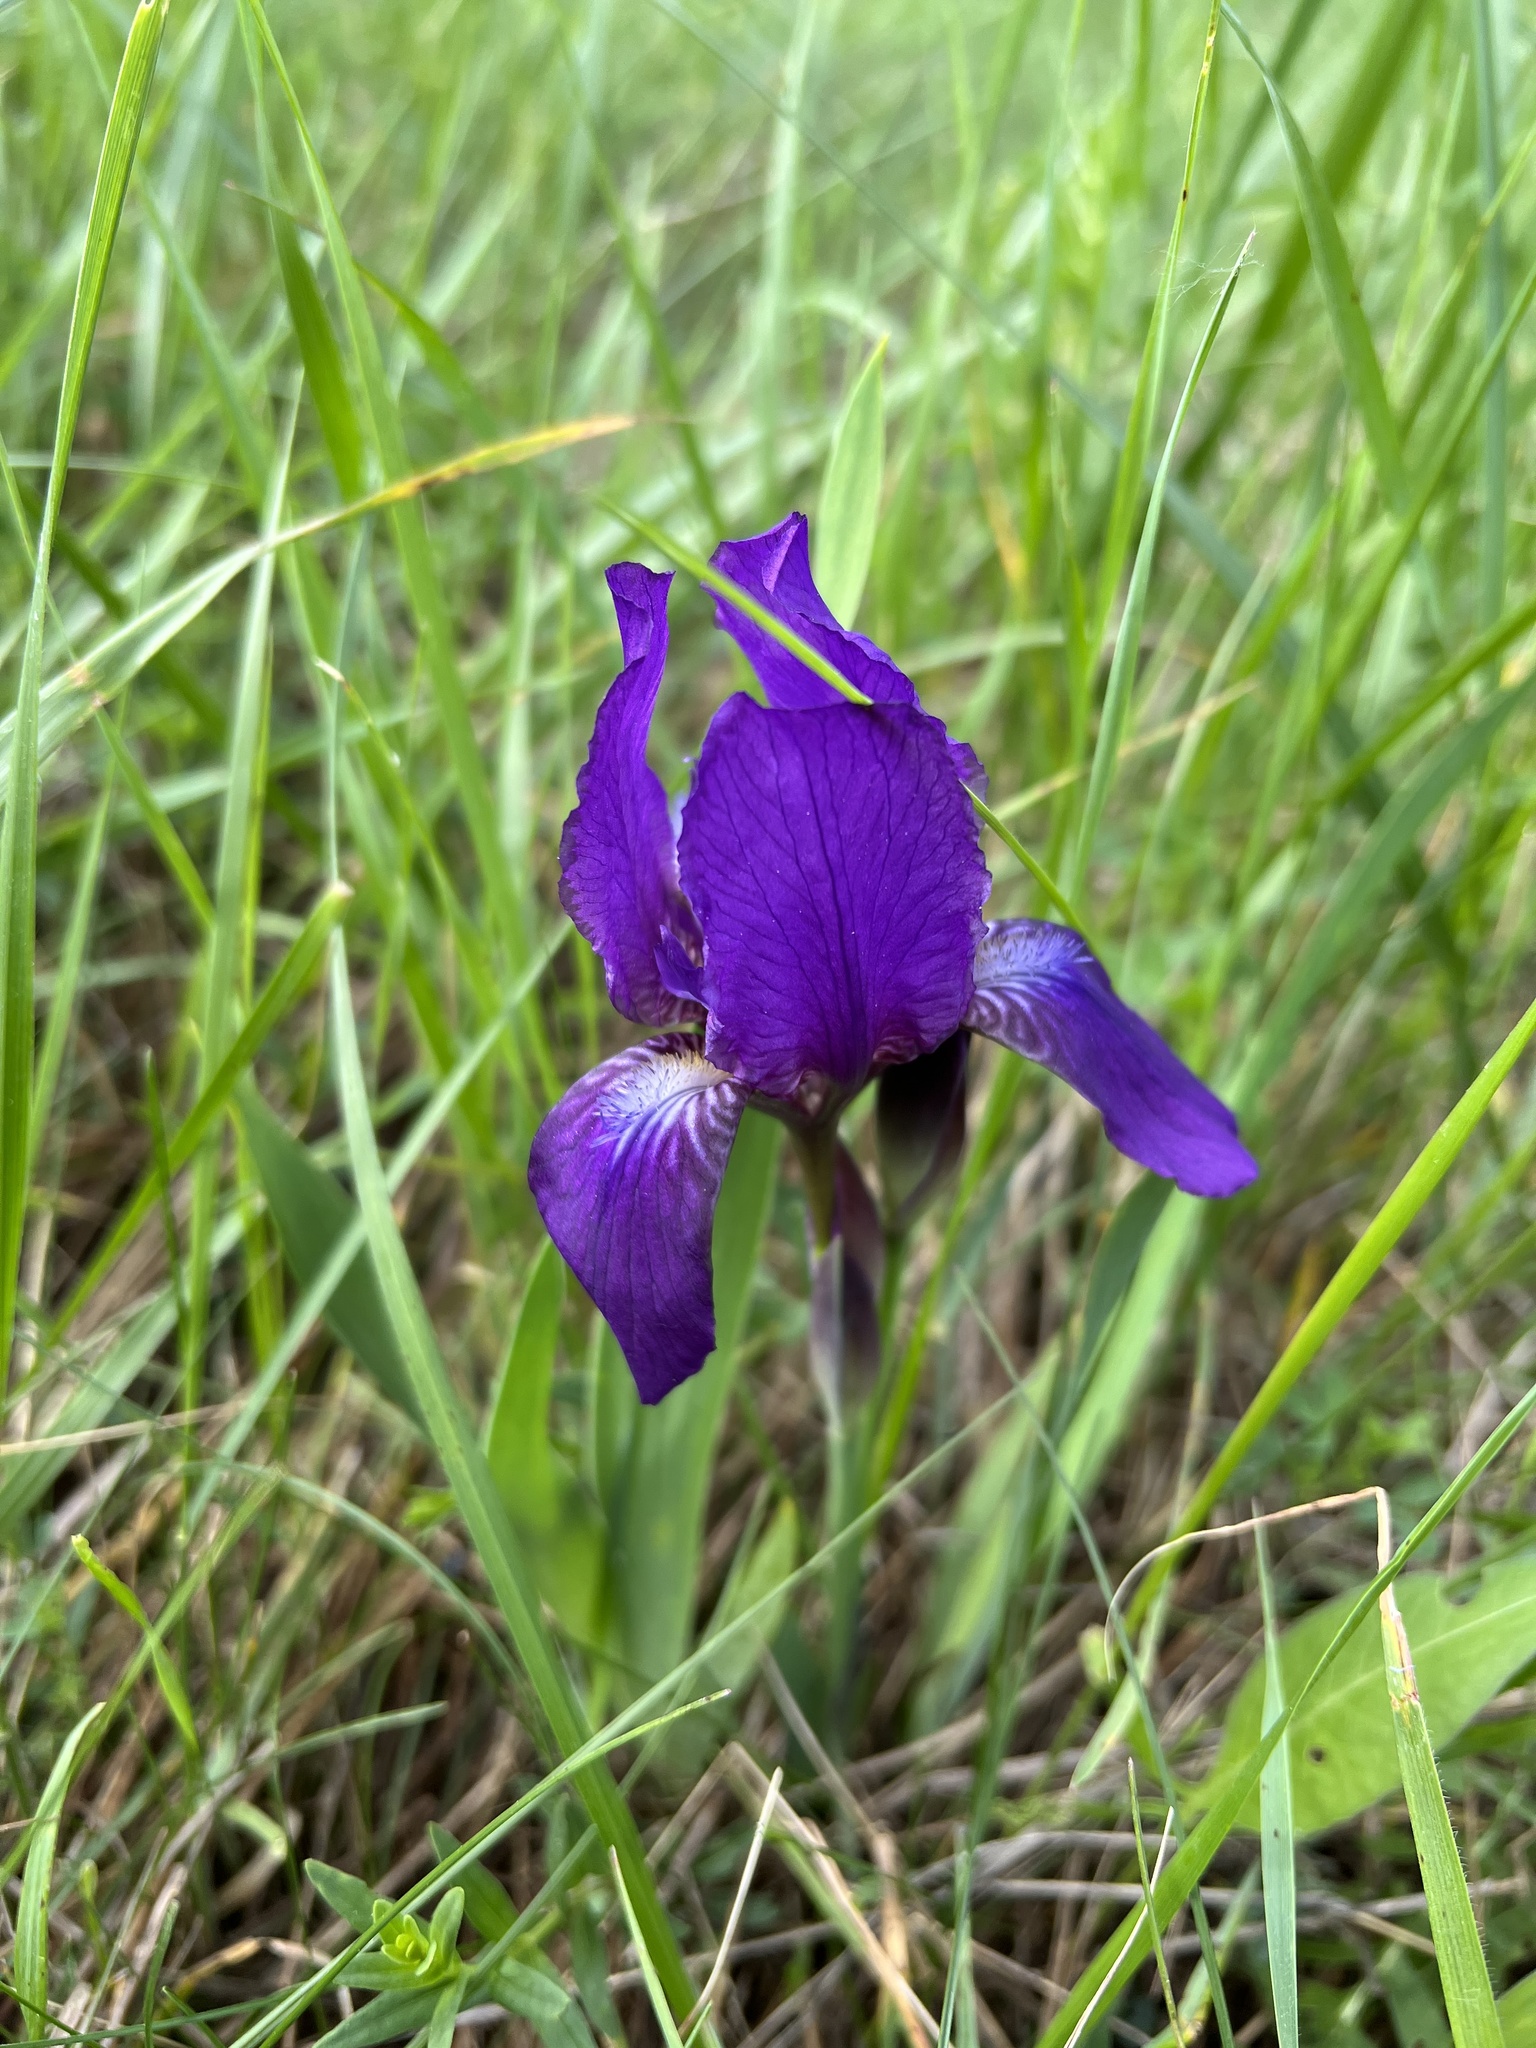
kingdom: Plantae
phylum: Tracheophyta
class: Liliopsida
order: Asparagales
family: Iridaceae
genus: Iris
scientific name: Iris aphylla
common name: Stool iris
